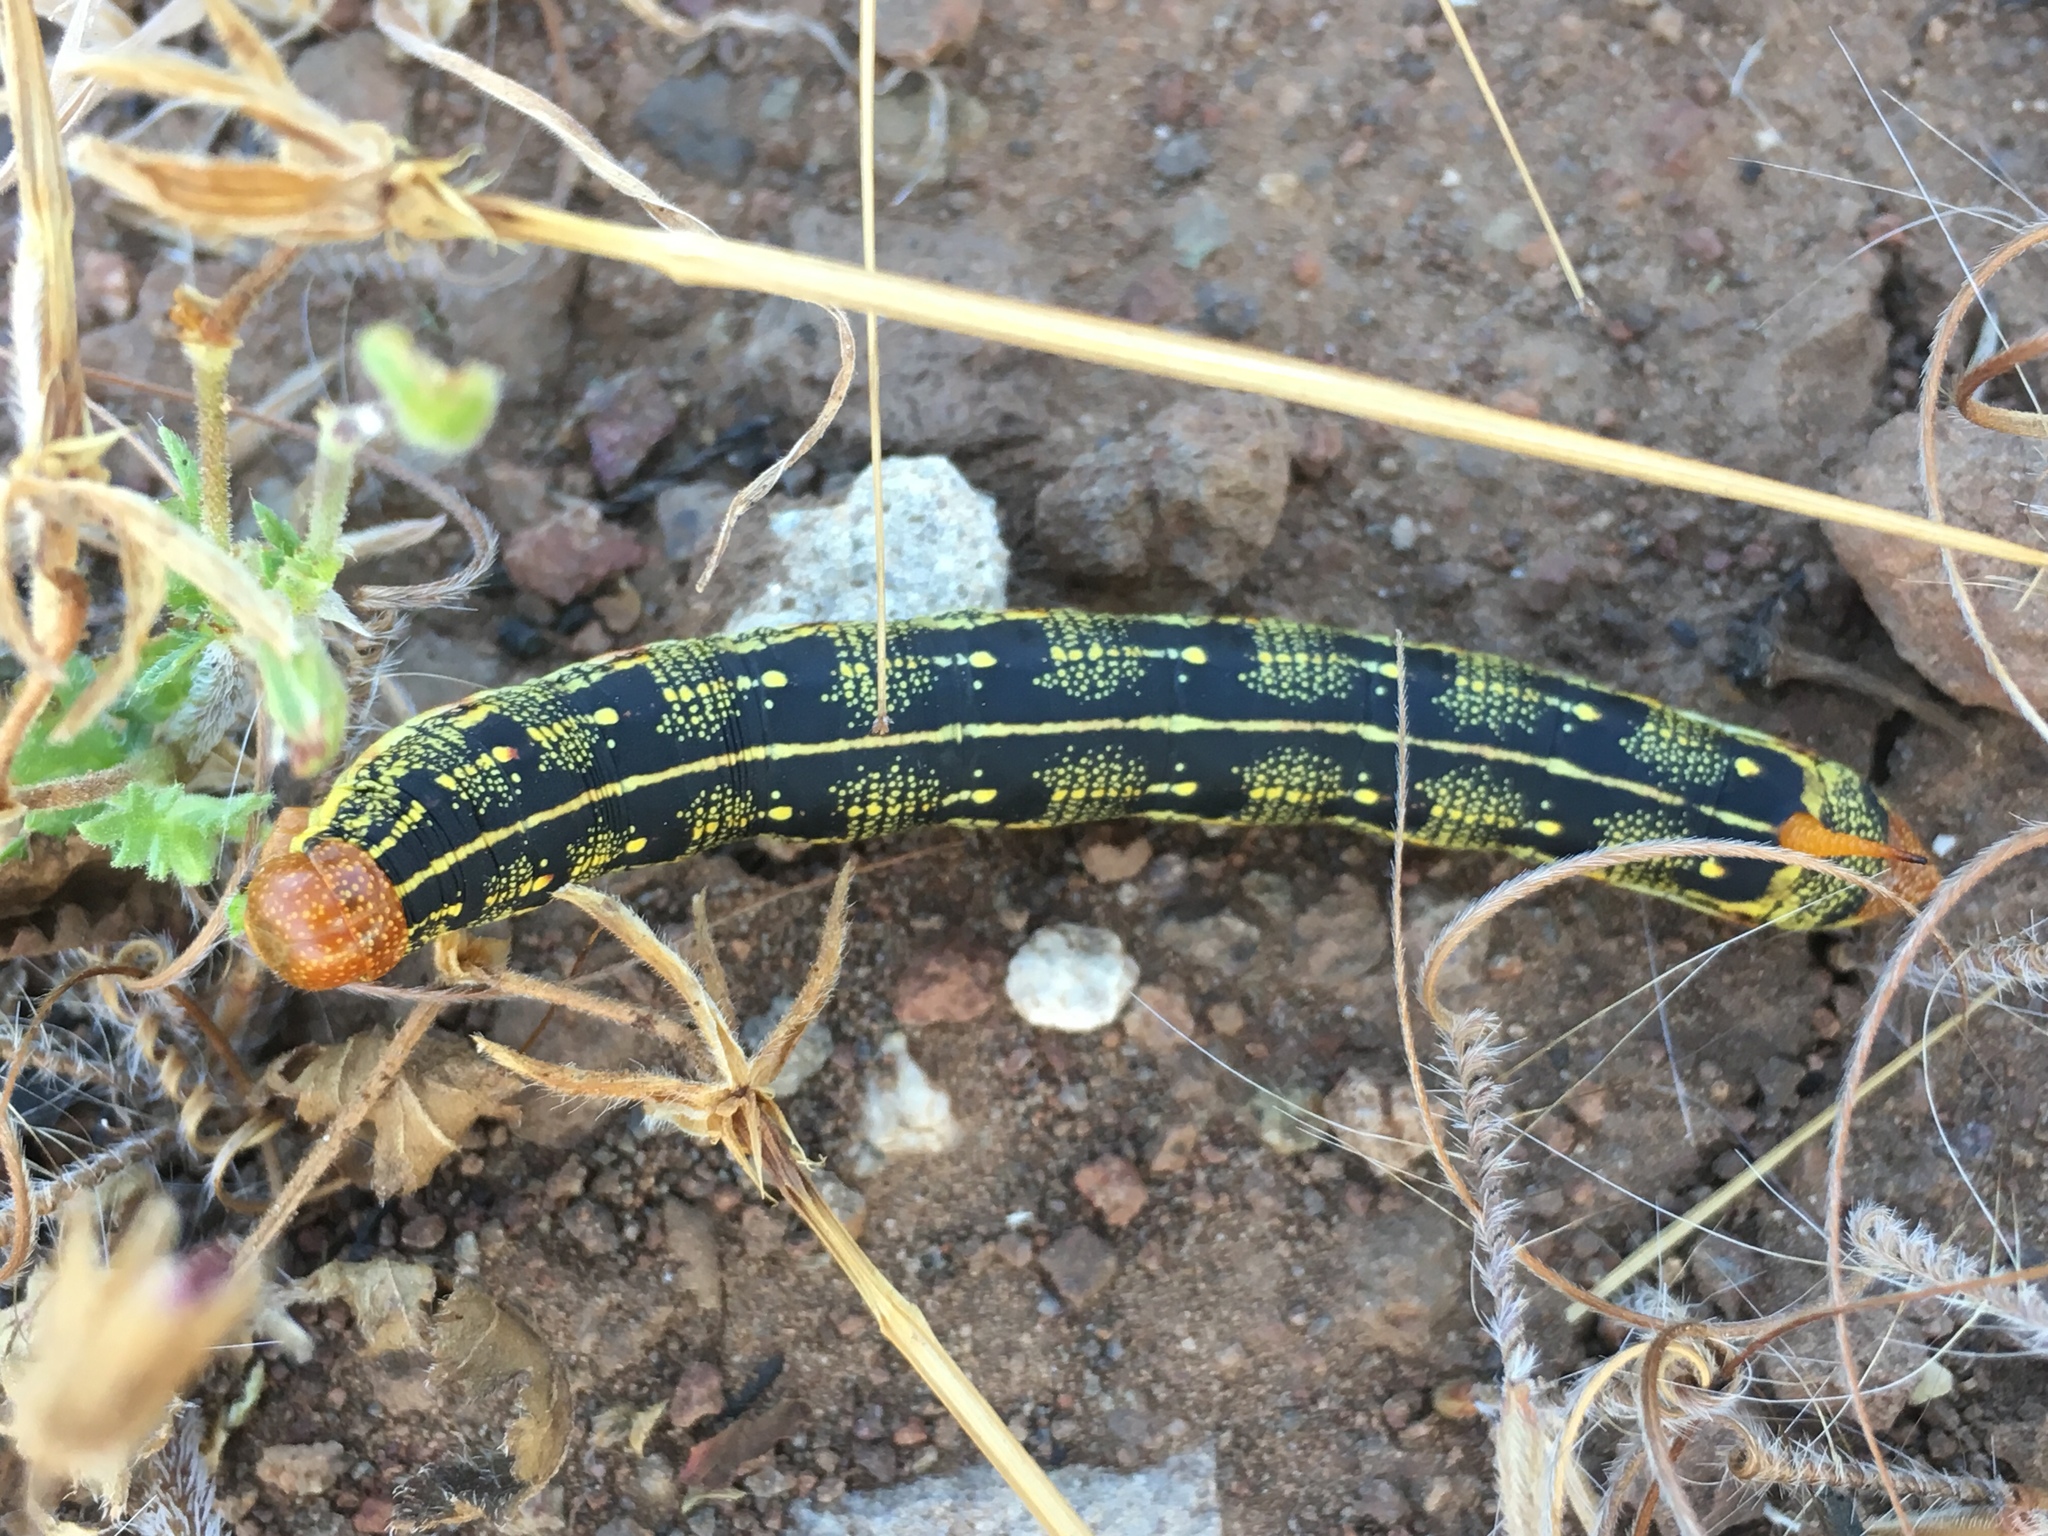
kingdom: Animalia
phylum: Arthropoda
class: Insecta
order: Lepidoptera
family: Sphingidae
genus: Hyles
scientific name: Hyles lineata
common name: White-lined sphinx
